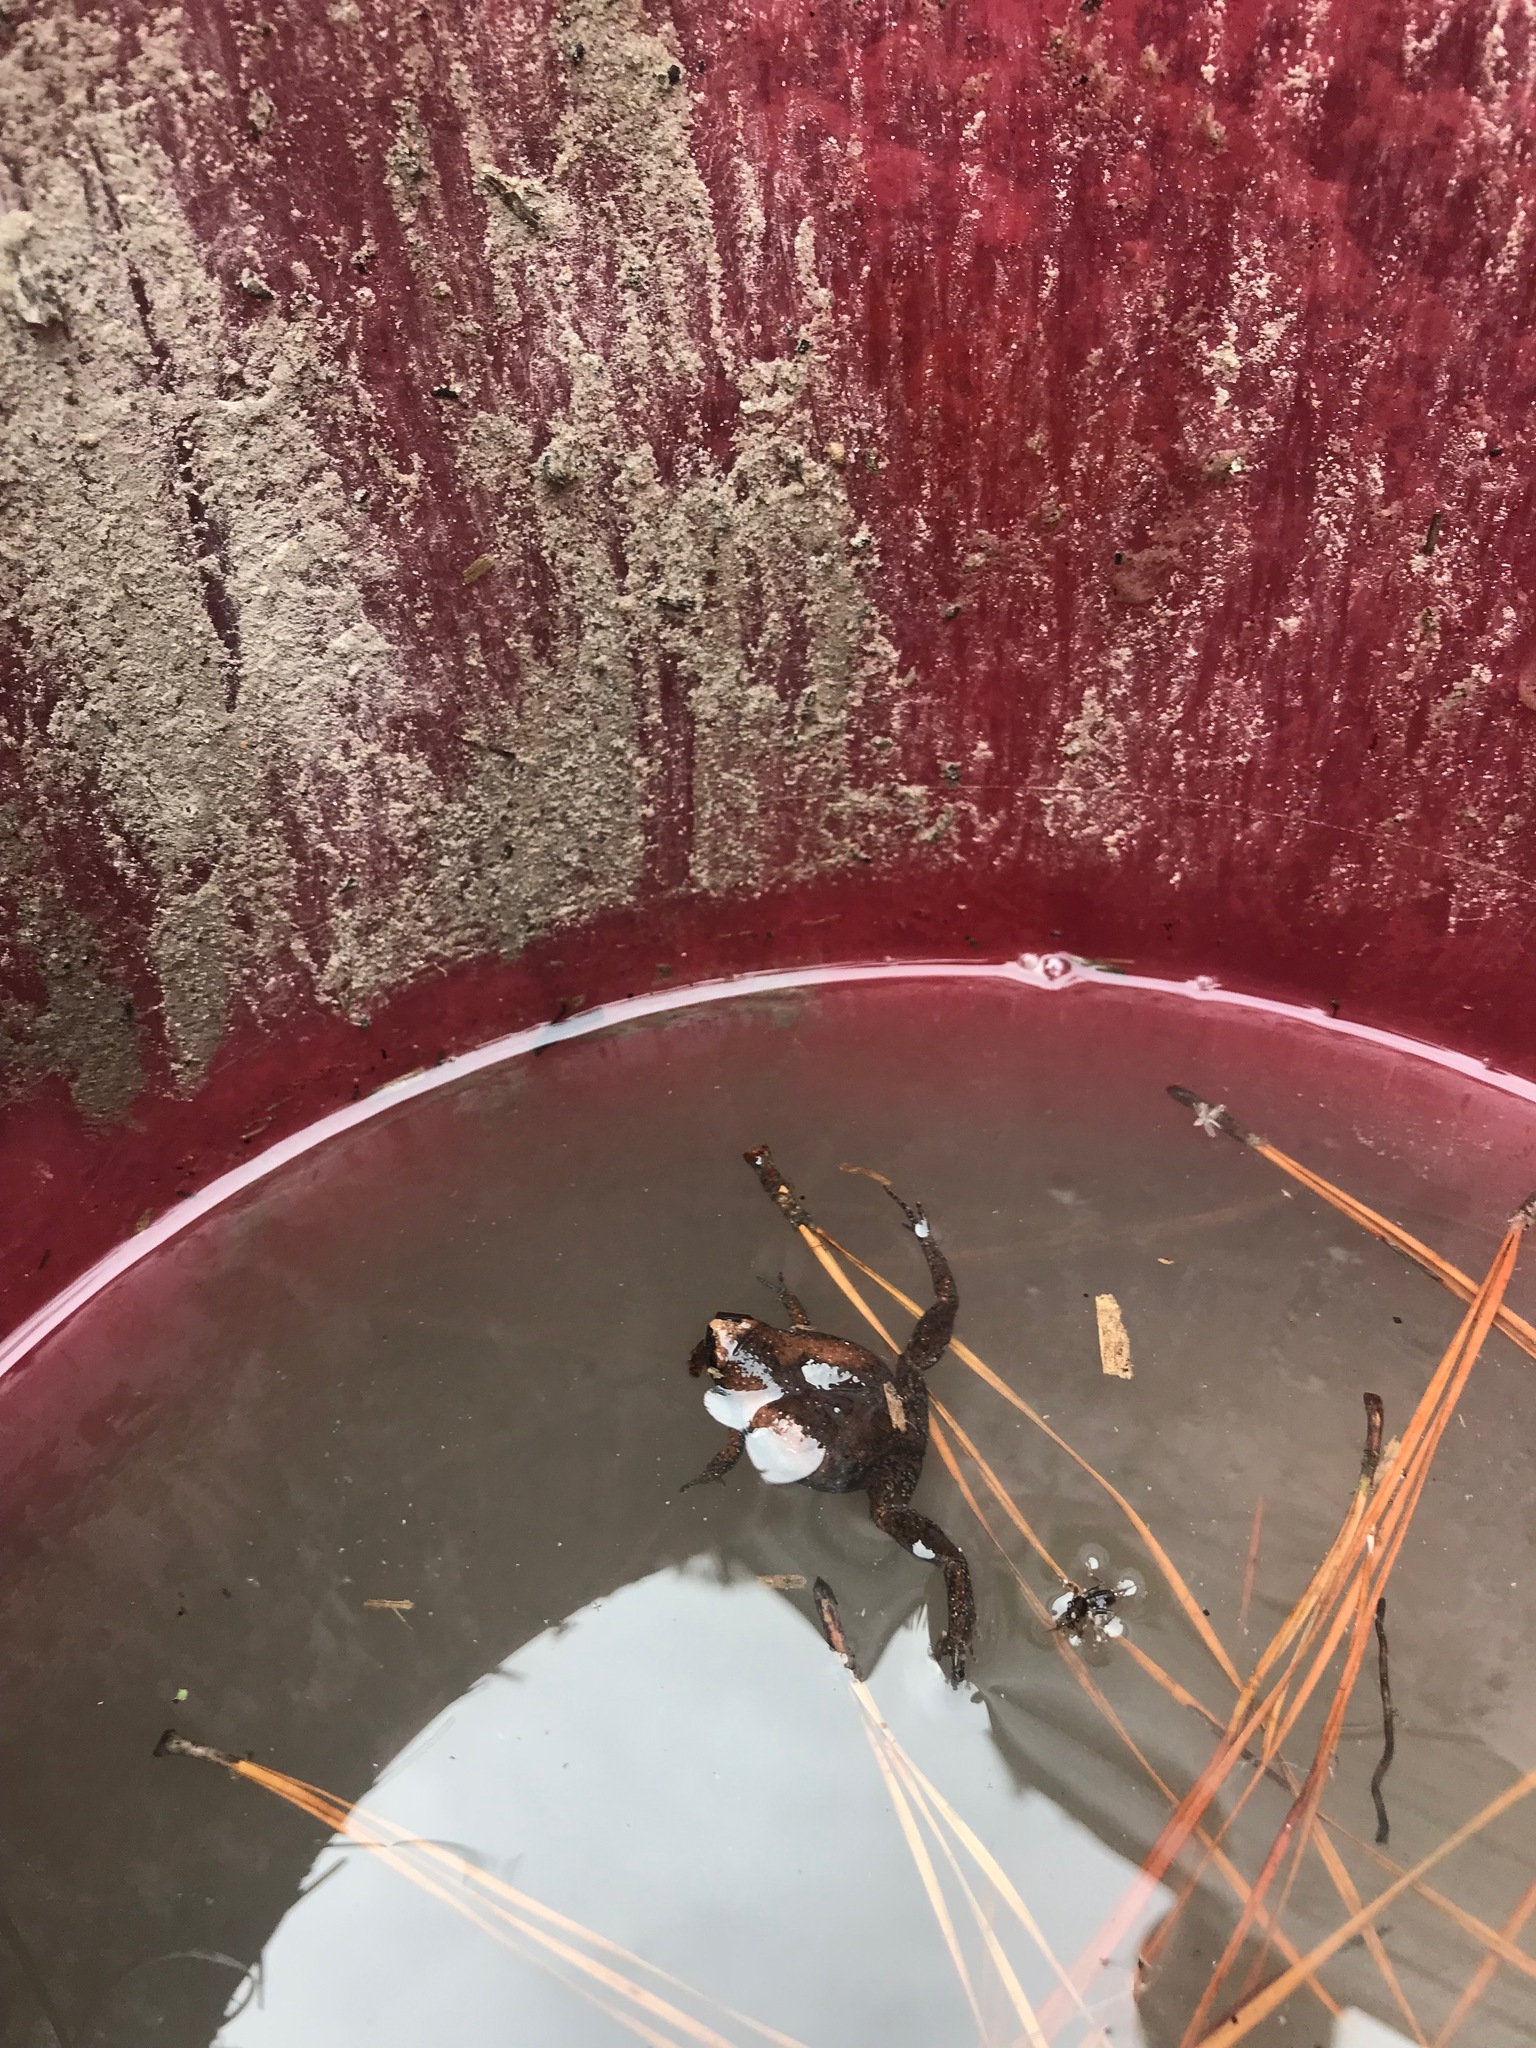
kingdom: Animalia
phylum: Chordata
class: Amphibia
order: Anura
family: Microhylidae
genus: Gastrophryne
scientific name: Gastrophryne carolinensis
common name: Eastern narrowmouth toad
